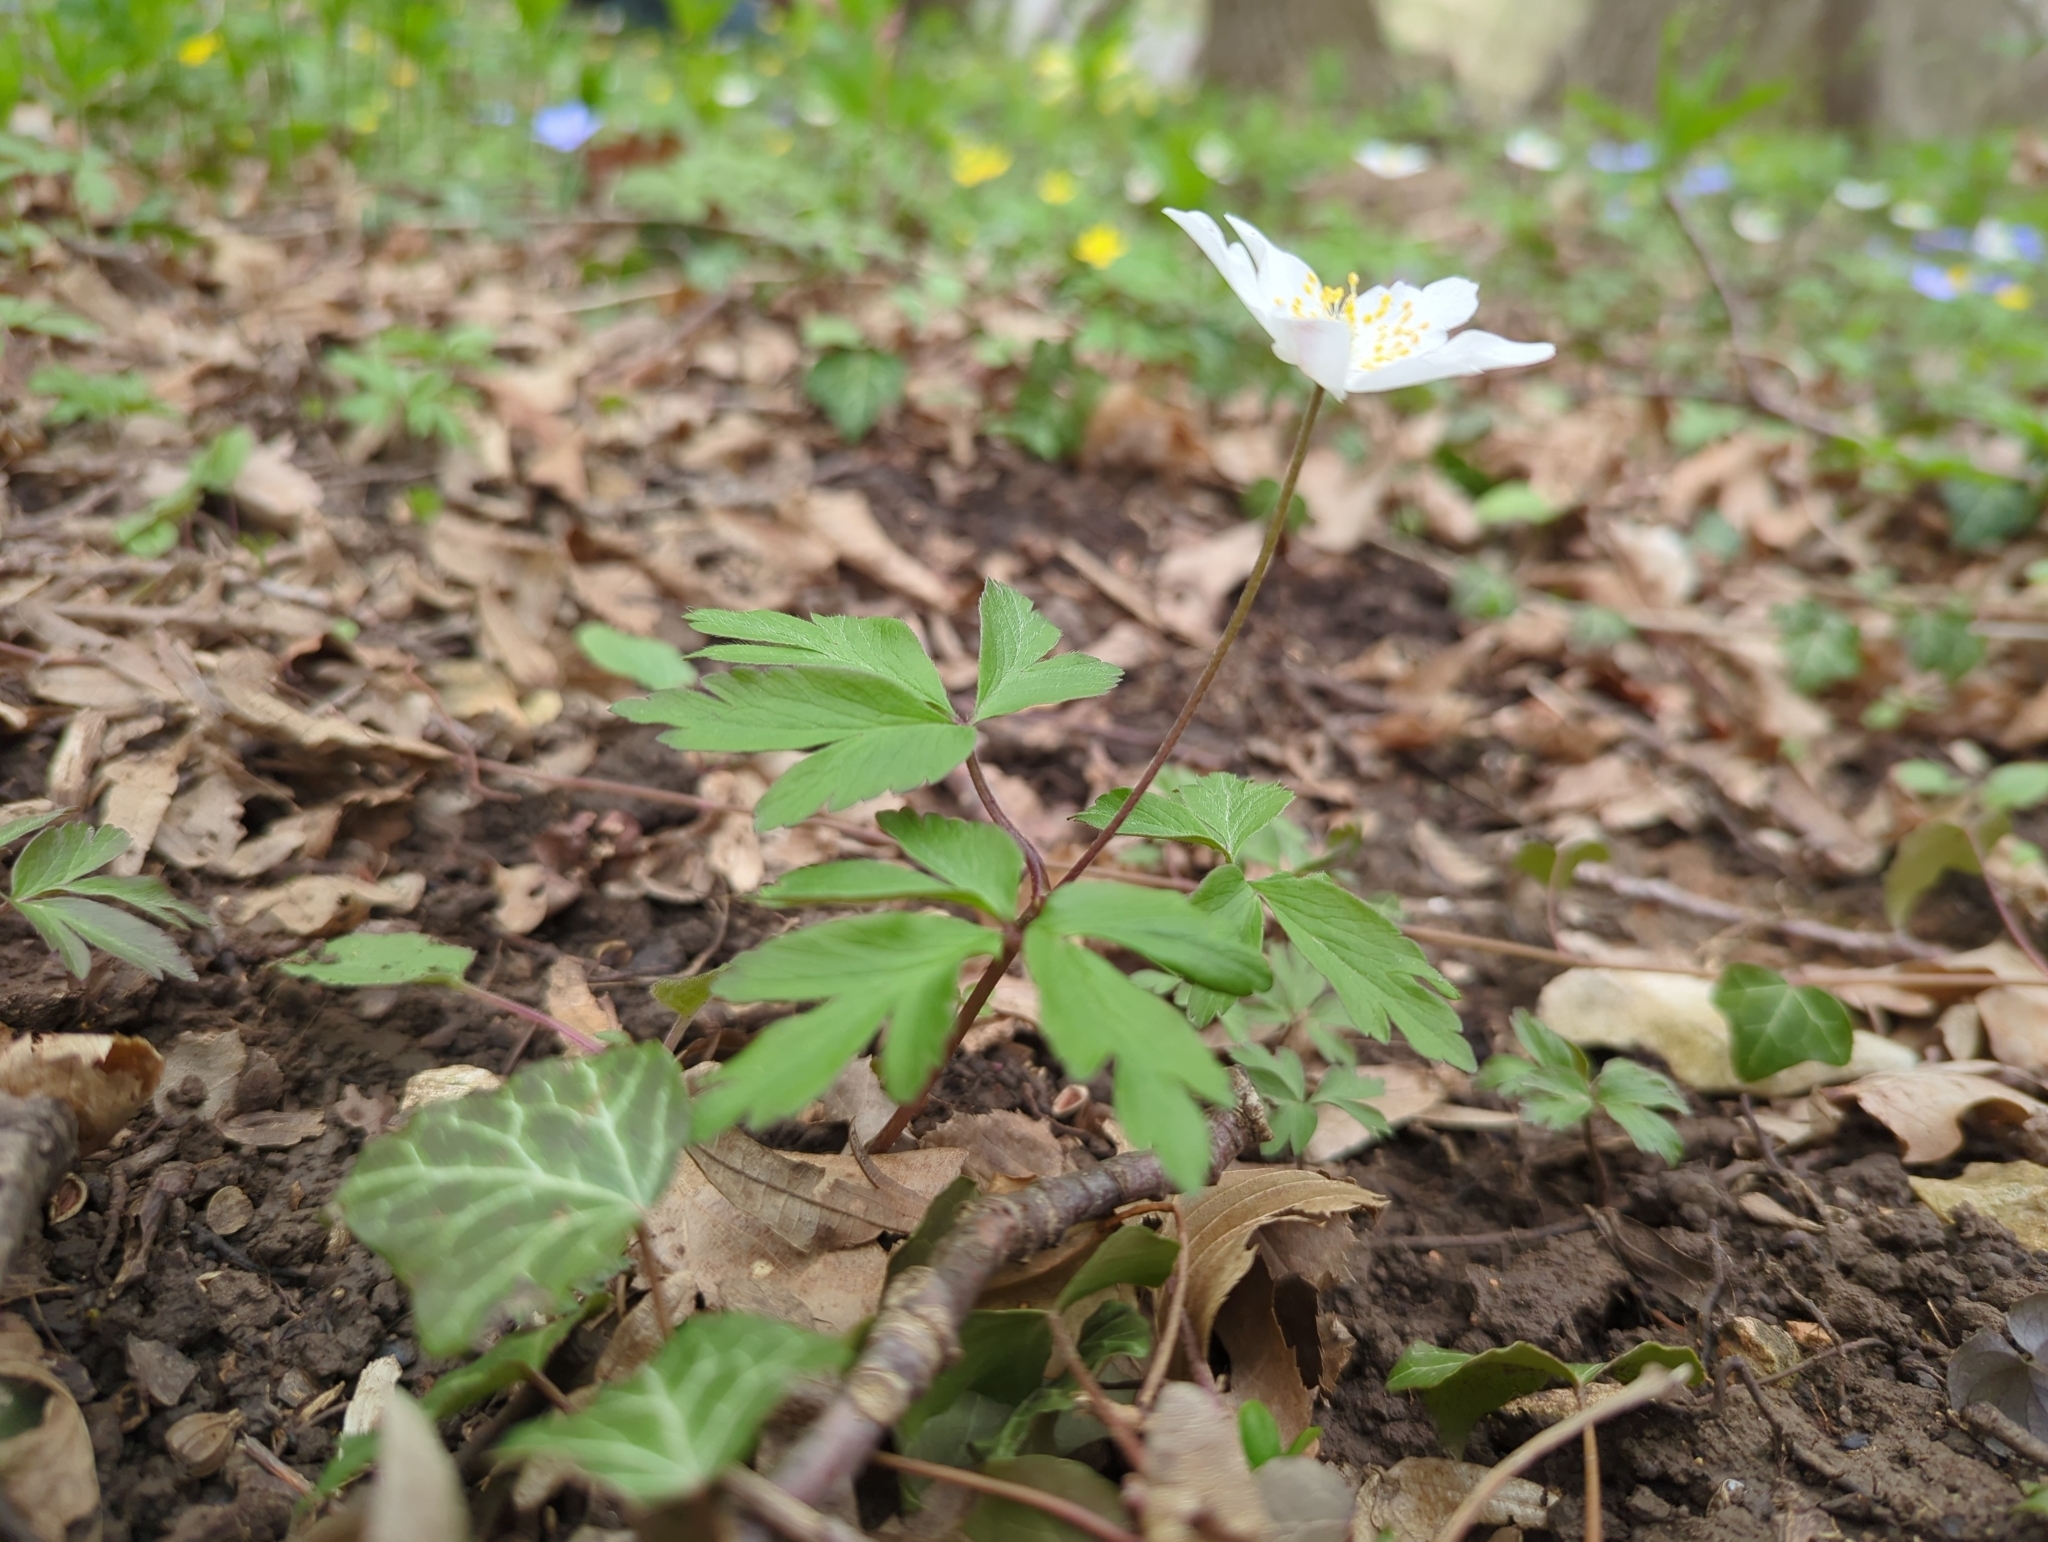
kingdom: Plantae
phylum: Tracheophyta
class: Magnoliopsida
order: Ranunculales
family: Ranunculaceae
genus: Anemone
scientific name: Anemone nemorosa
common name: Wood anemone
